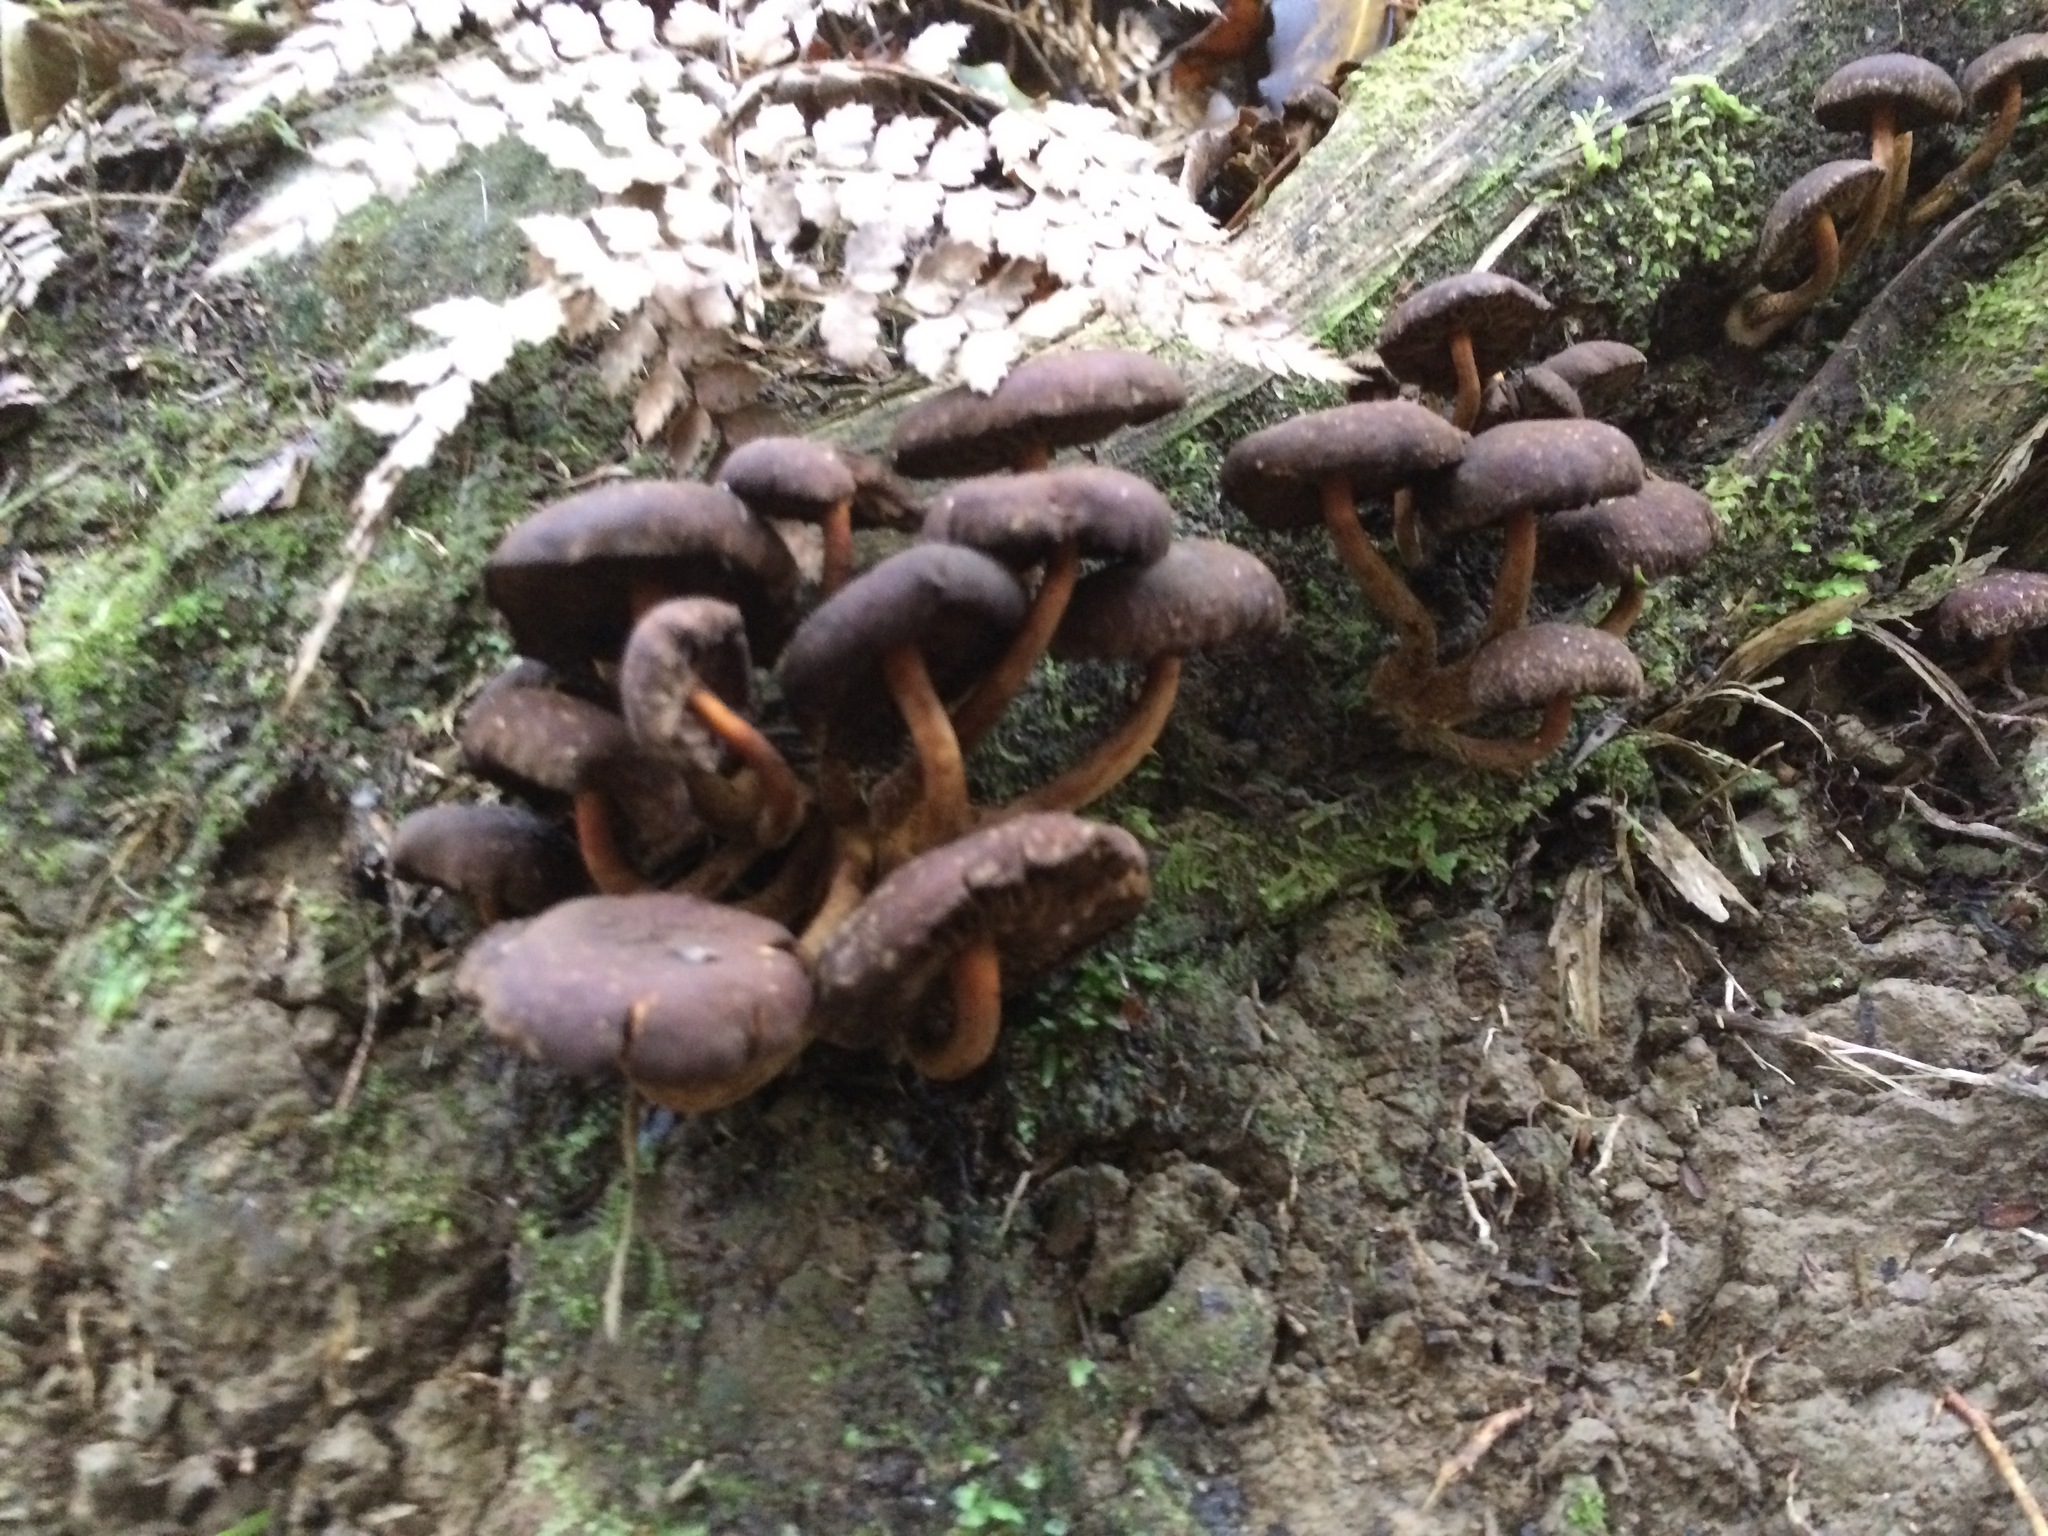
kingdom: Fungi
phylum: Basidiomycota
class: Agaricomycetes
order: Agaricales
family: Strophariaceae
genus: Hypholoma
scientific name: Hypholoma brunneum
